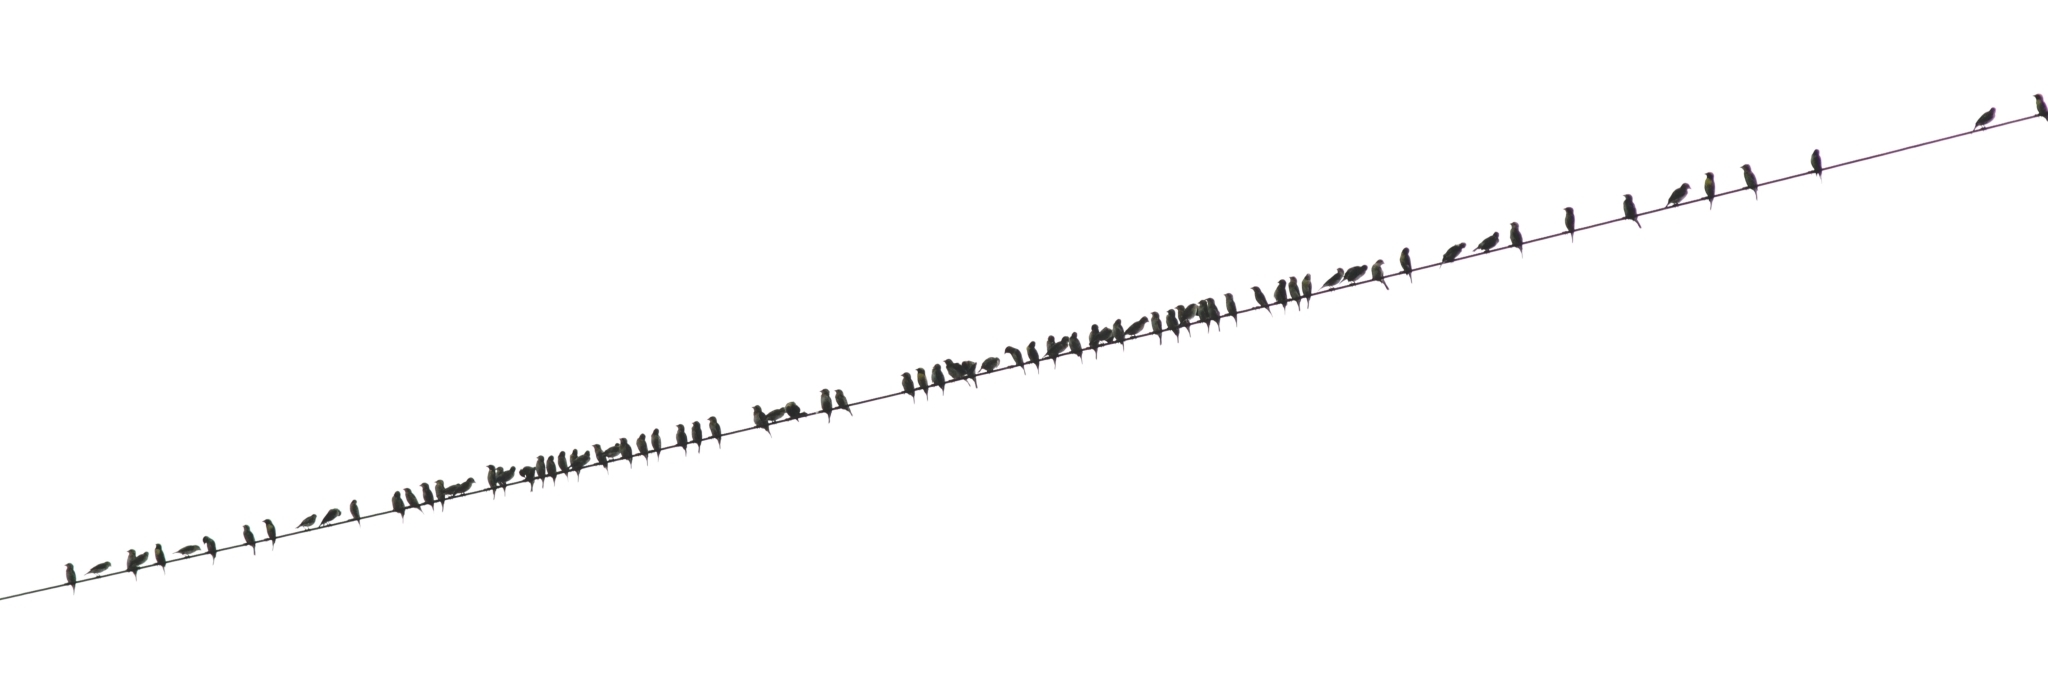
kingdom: Animalia
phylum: Chordata
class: Aves
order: Passeriformes
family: Ploceidae
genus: Ploceus
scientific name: Ploceus philippinus
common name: Baya weaver
